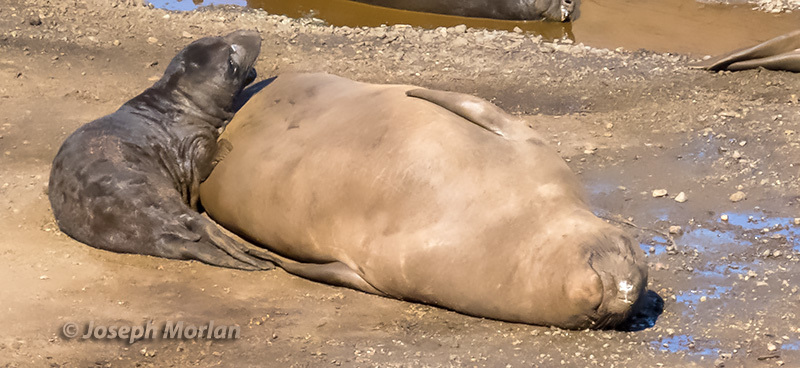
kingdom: Animalia
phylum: Chordata
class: Mammalia
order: Carnivora
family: Phocidae
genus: Mirounga
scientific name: Mirounga angustirostris
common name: Northern elephant seal
